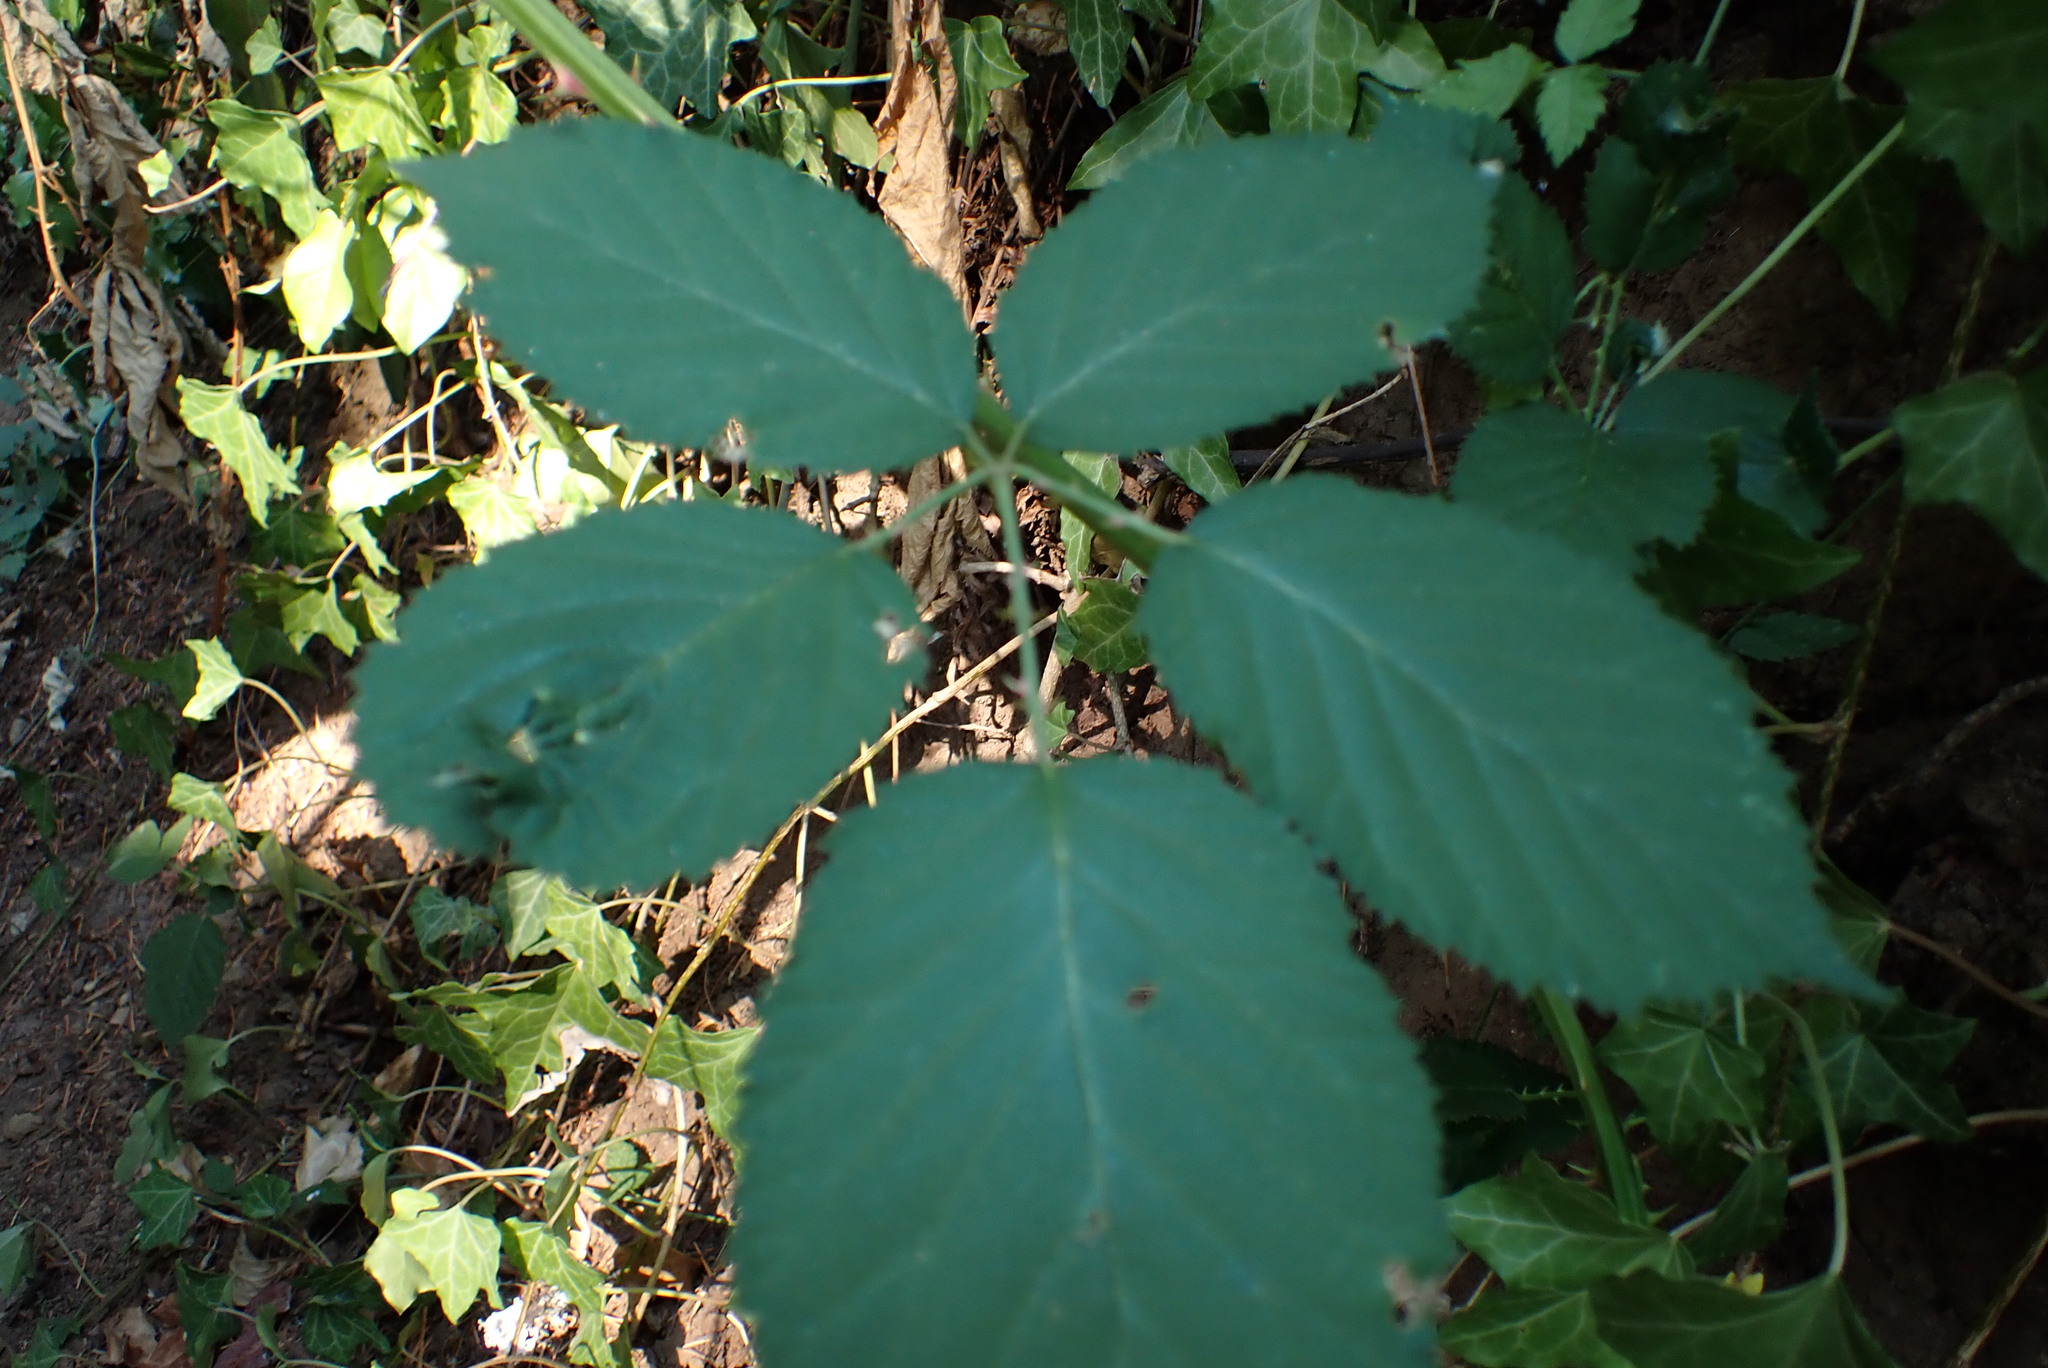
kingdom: Plantae
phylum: Tracheophyta
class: Magnoliopsida
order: Rosales
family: Rosaceae
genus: Rubus
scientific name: Rubus bifrons
